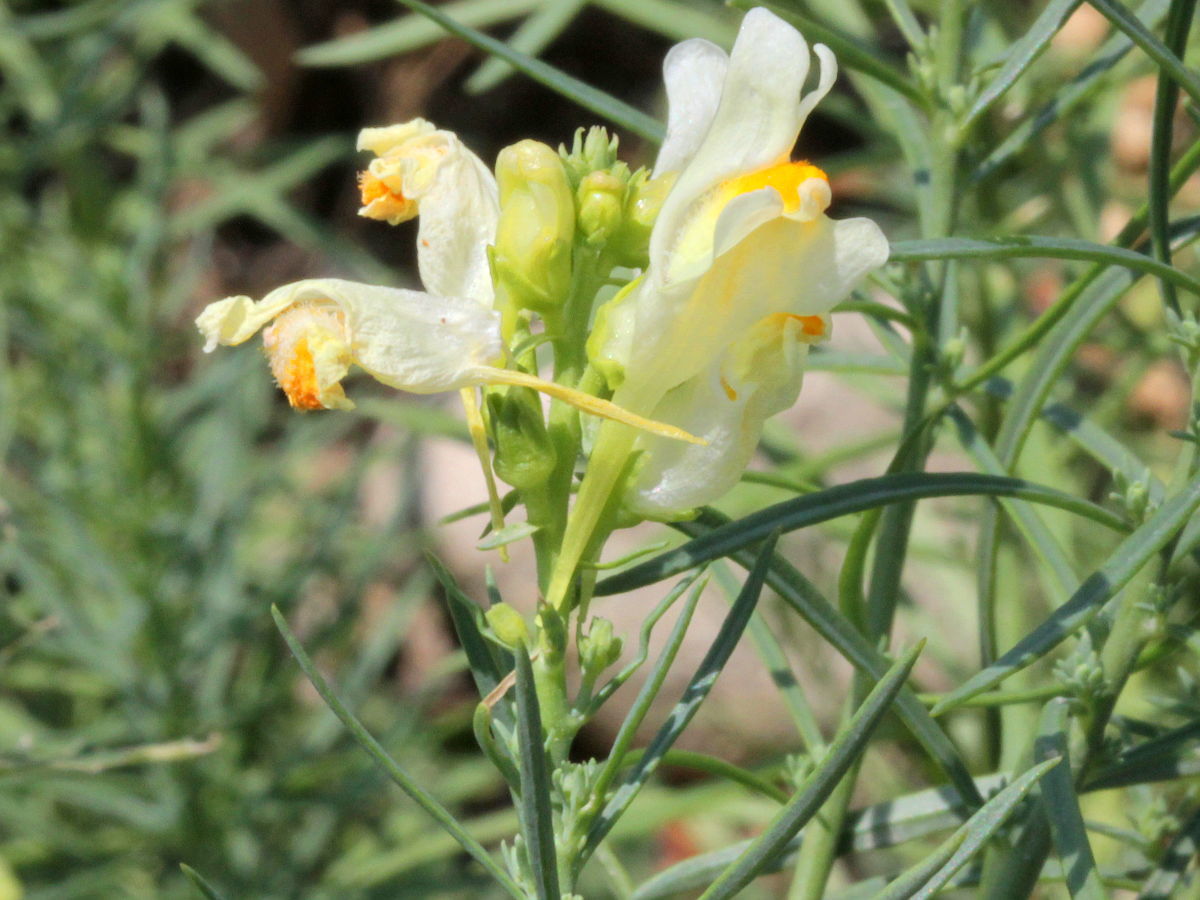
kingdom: Plantae
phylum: Tracheophyta
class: Magnoliopsida
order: Lamiales
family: Plantaginaceae
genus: Linaria
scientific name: Linaria vulgaris
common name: Butter and eggs
